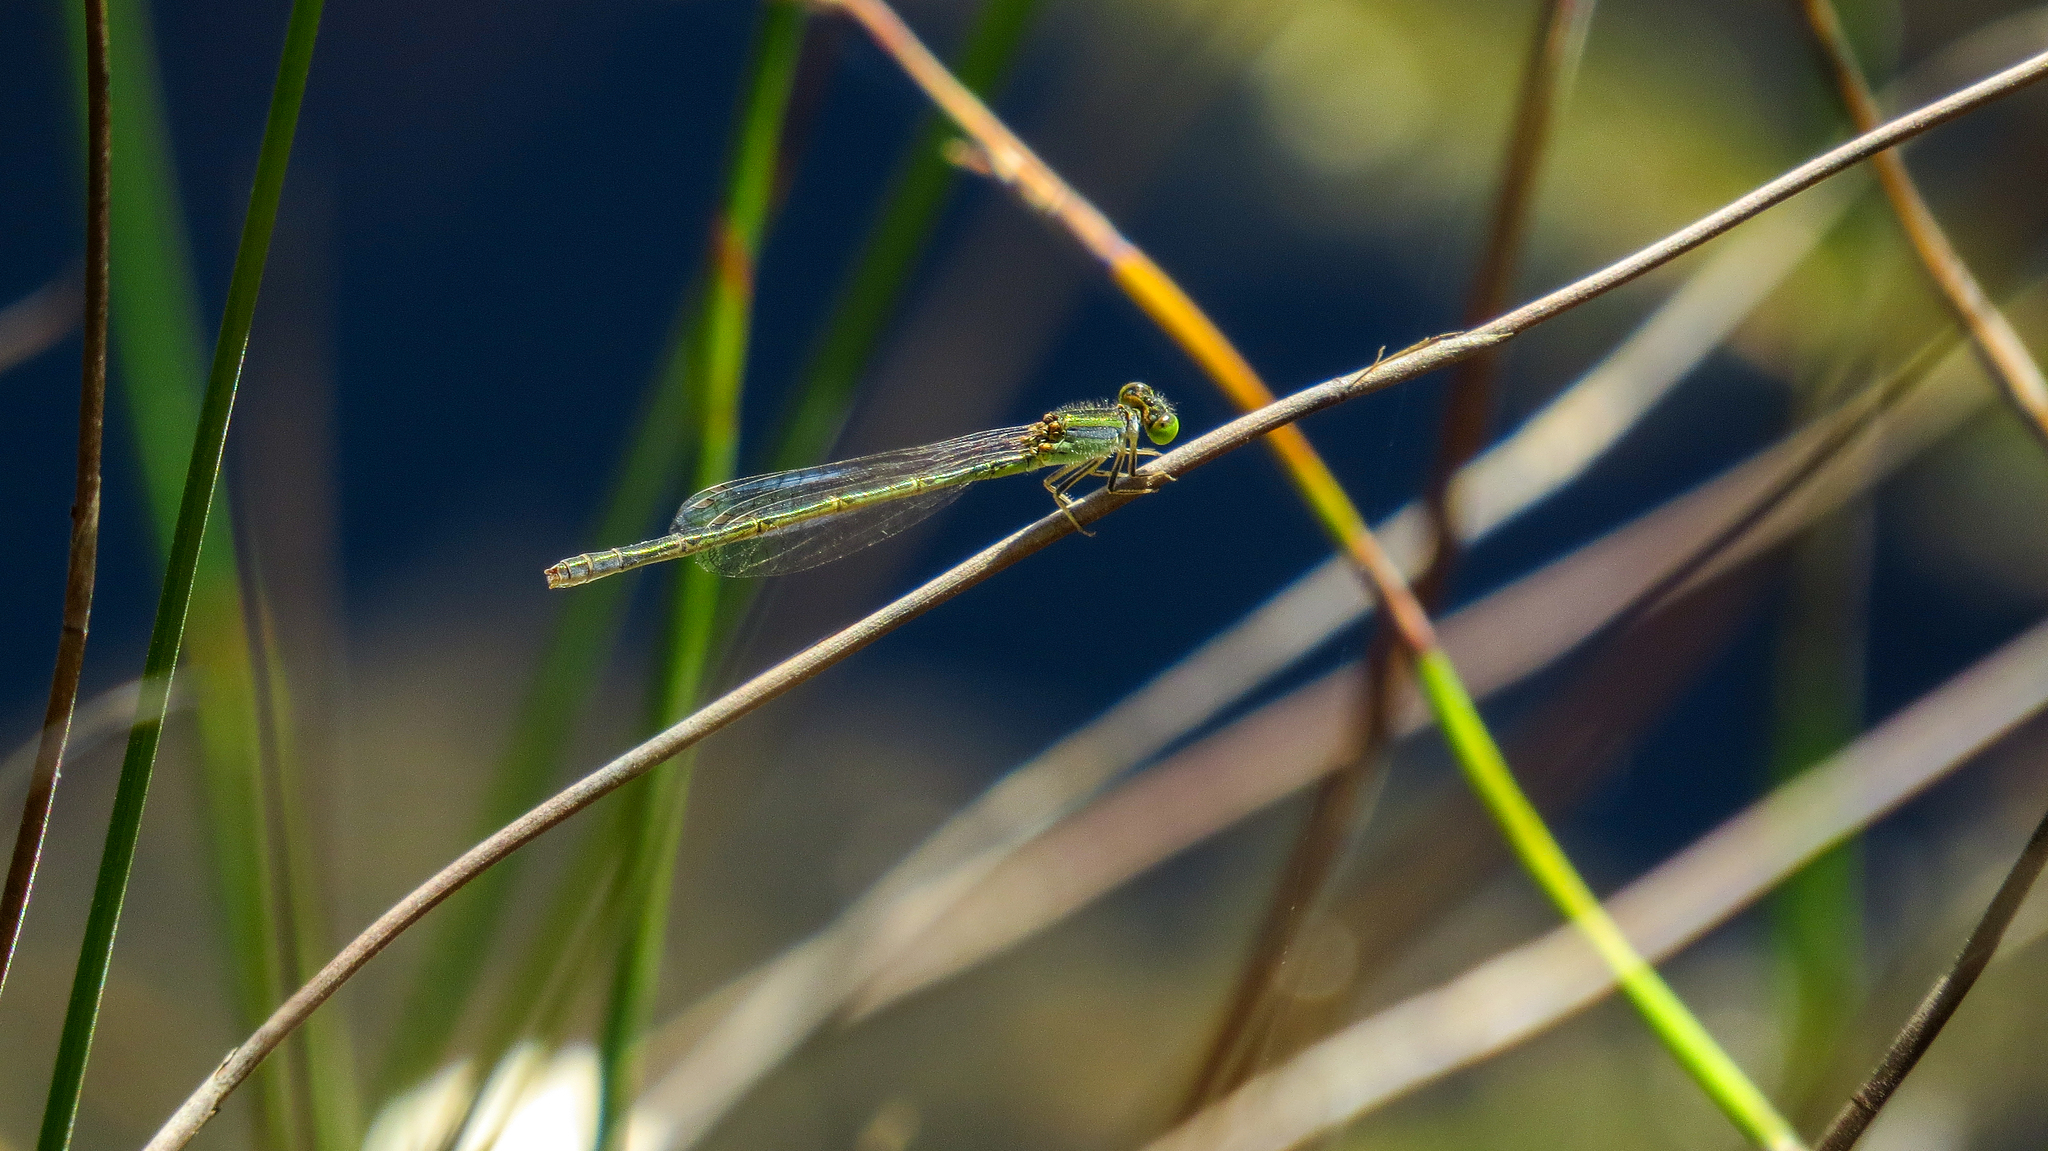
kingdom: Animalia
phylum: Arthropoda
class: Insecta
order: Odonata
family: Coenagrionidae
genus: Ischnura
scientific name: Ischnura aurora
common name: Gossamer damselfly
